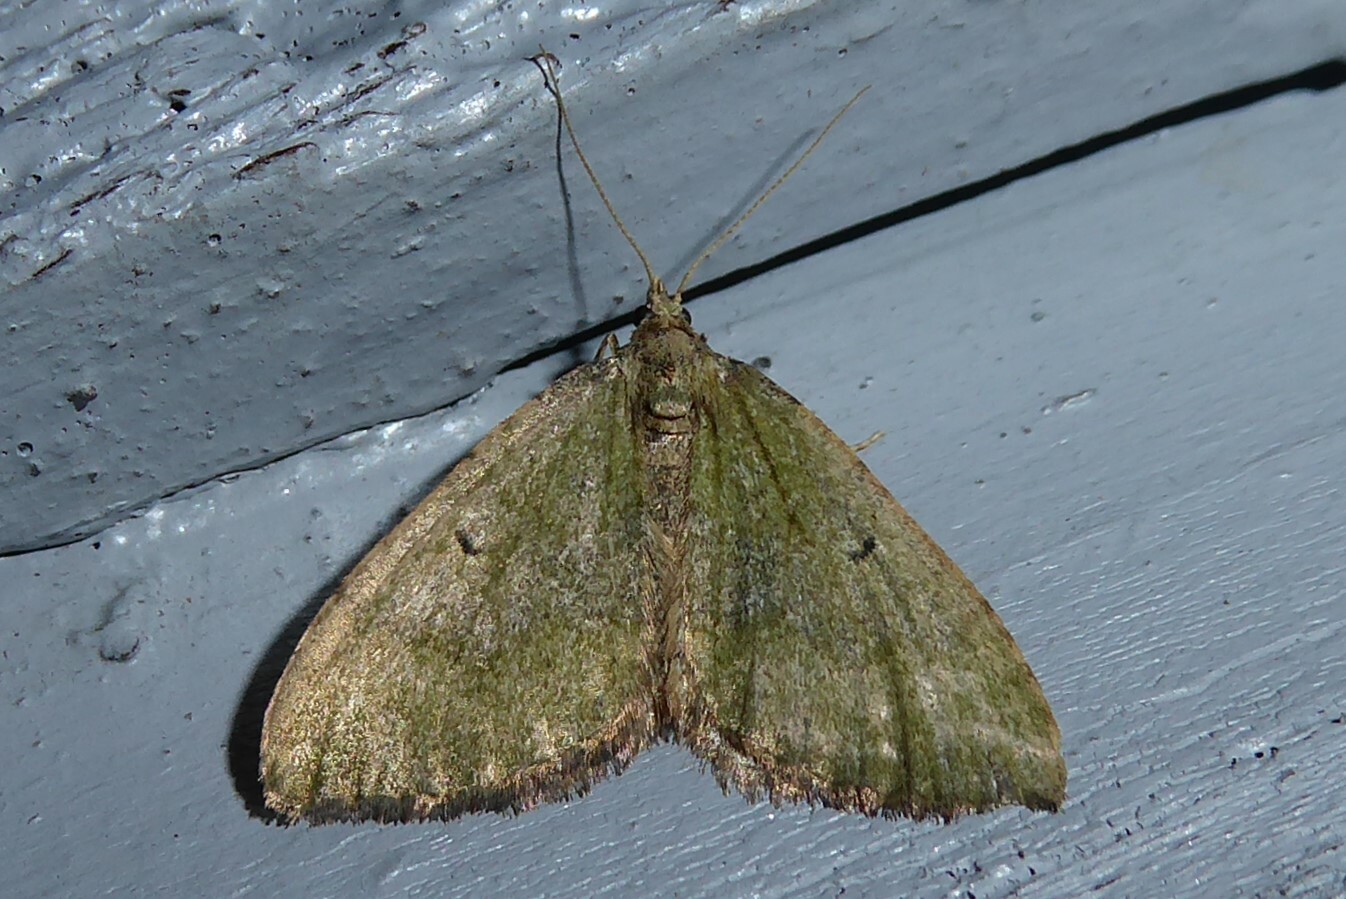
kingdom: Animalia
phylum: Arthropoda
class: Insecta
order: Lepidoptera
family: Geometridae
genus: Epyaxa
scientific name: Epyaxa rosearia
